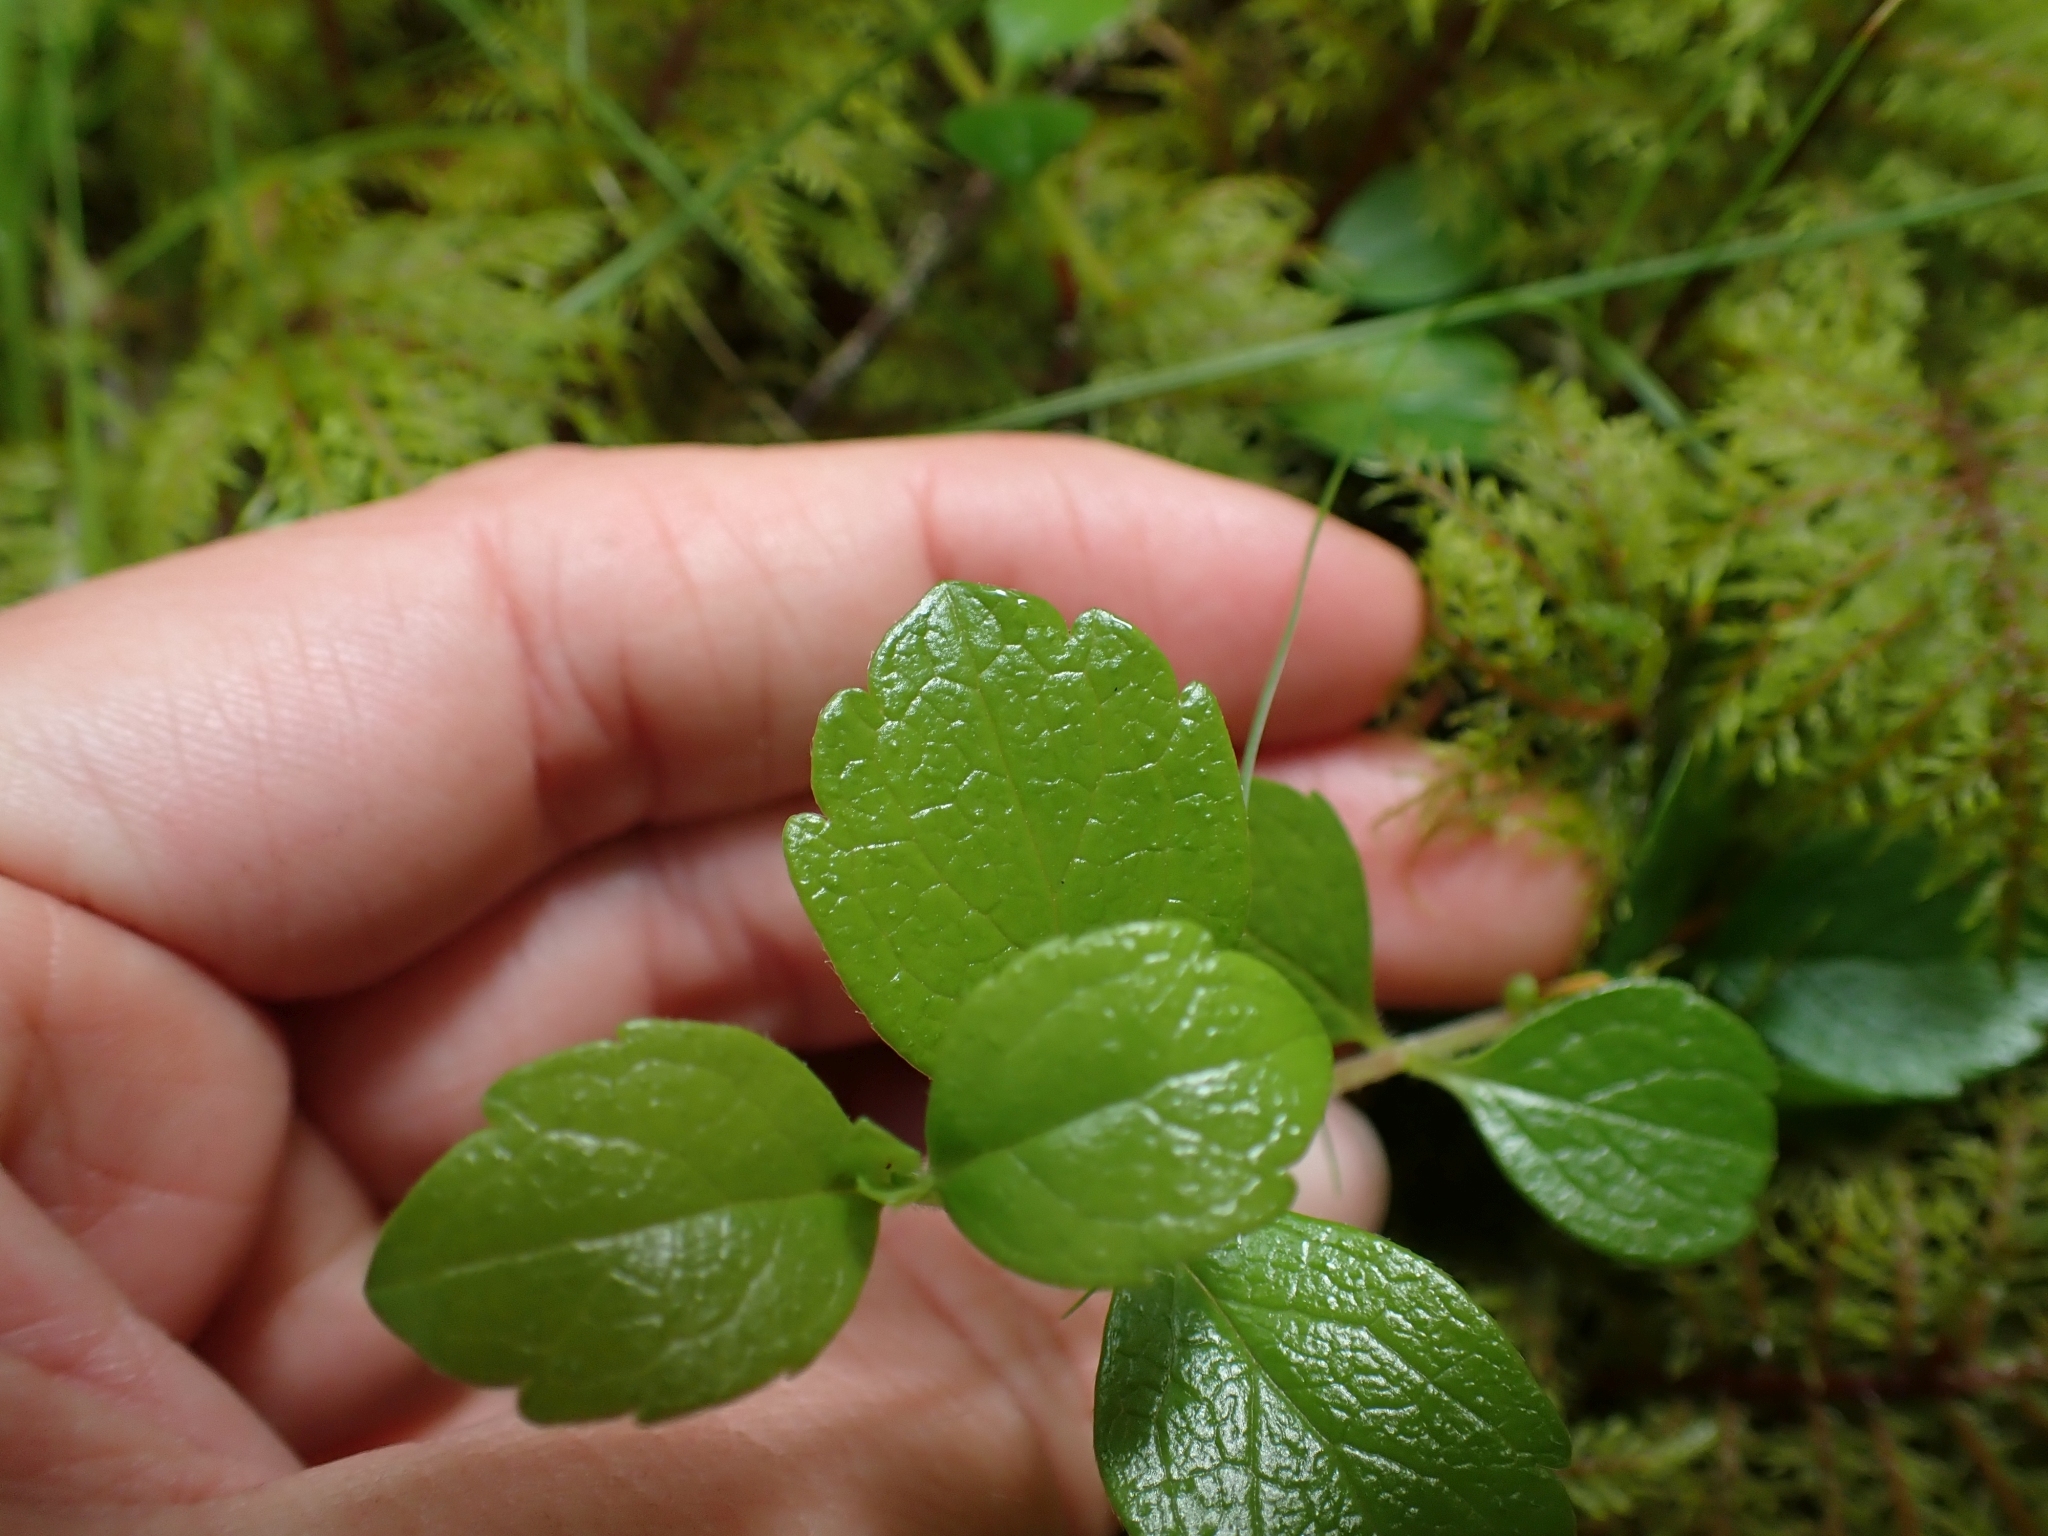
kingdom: Plantae
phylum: Tracheophyta
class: Magnoliopsida
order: Dipsacales
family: Caprifoliaceae
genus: Linnaea
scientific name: Linnaea borealis
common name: Twinflower
